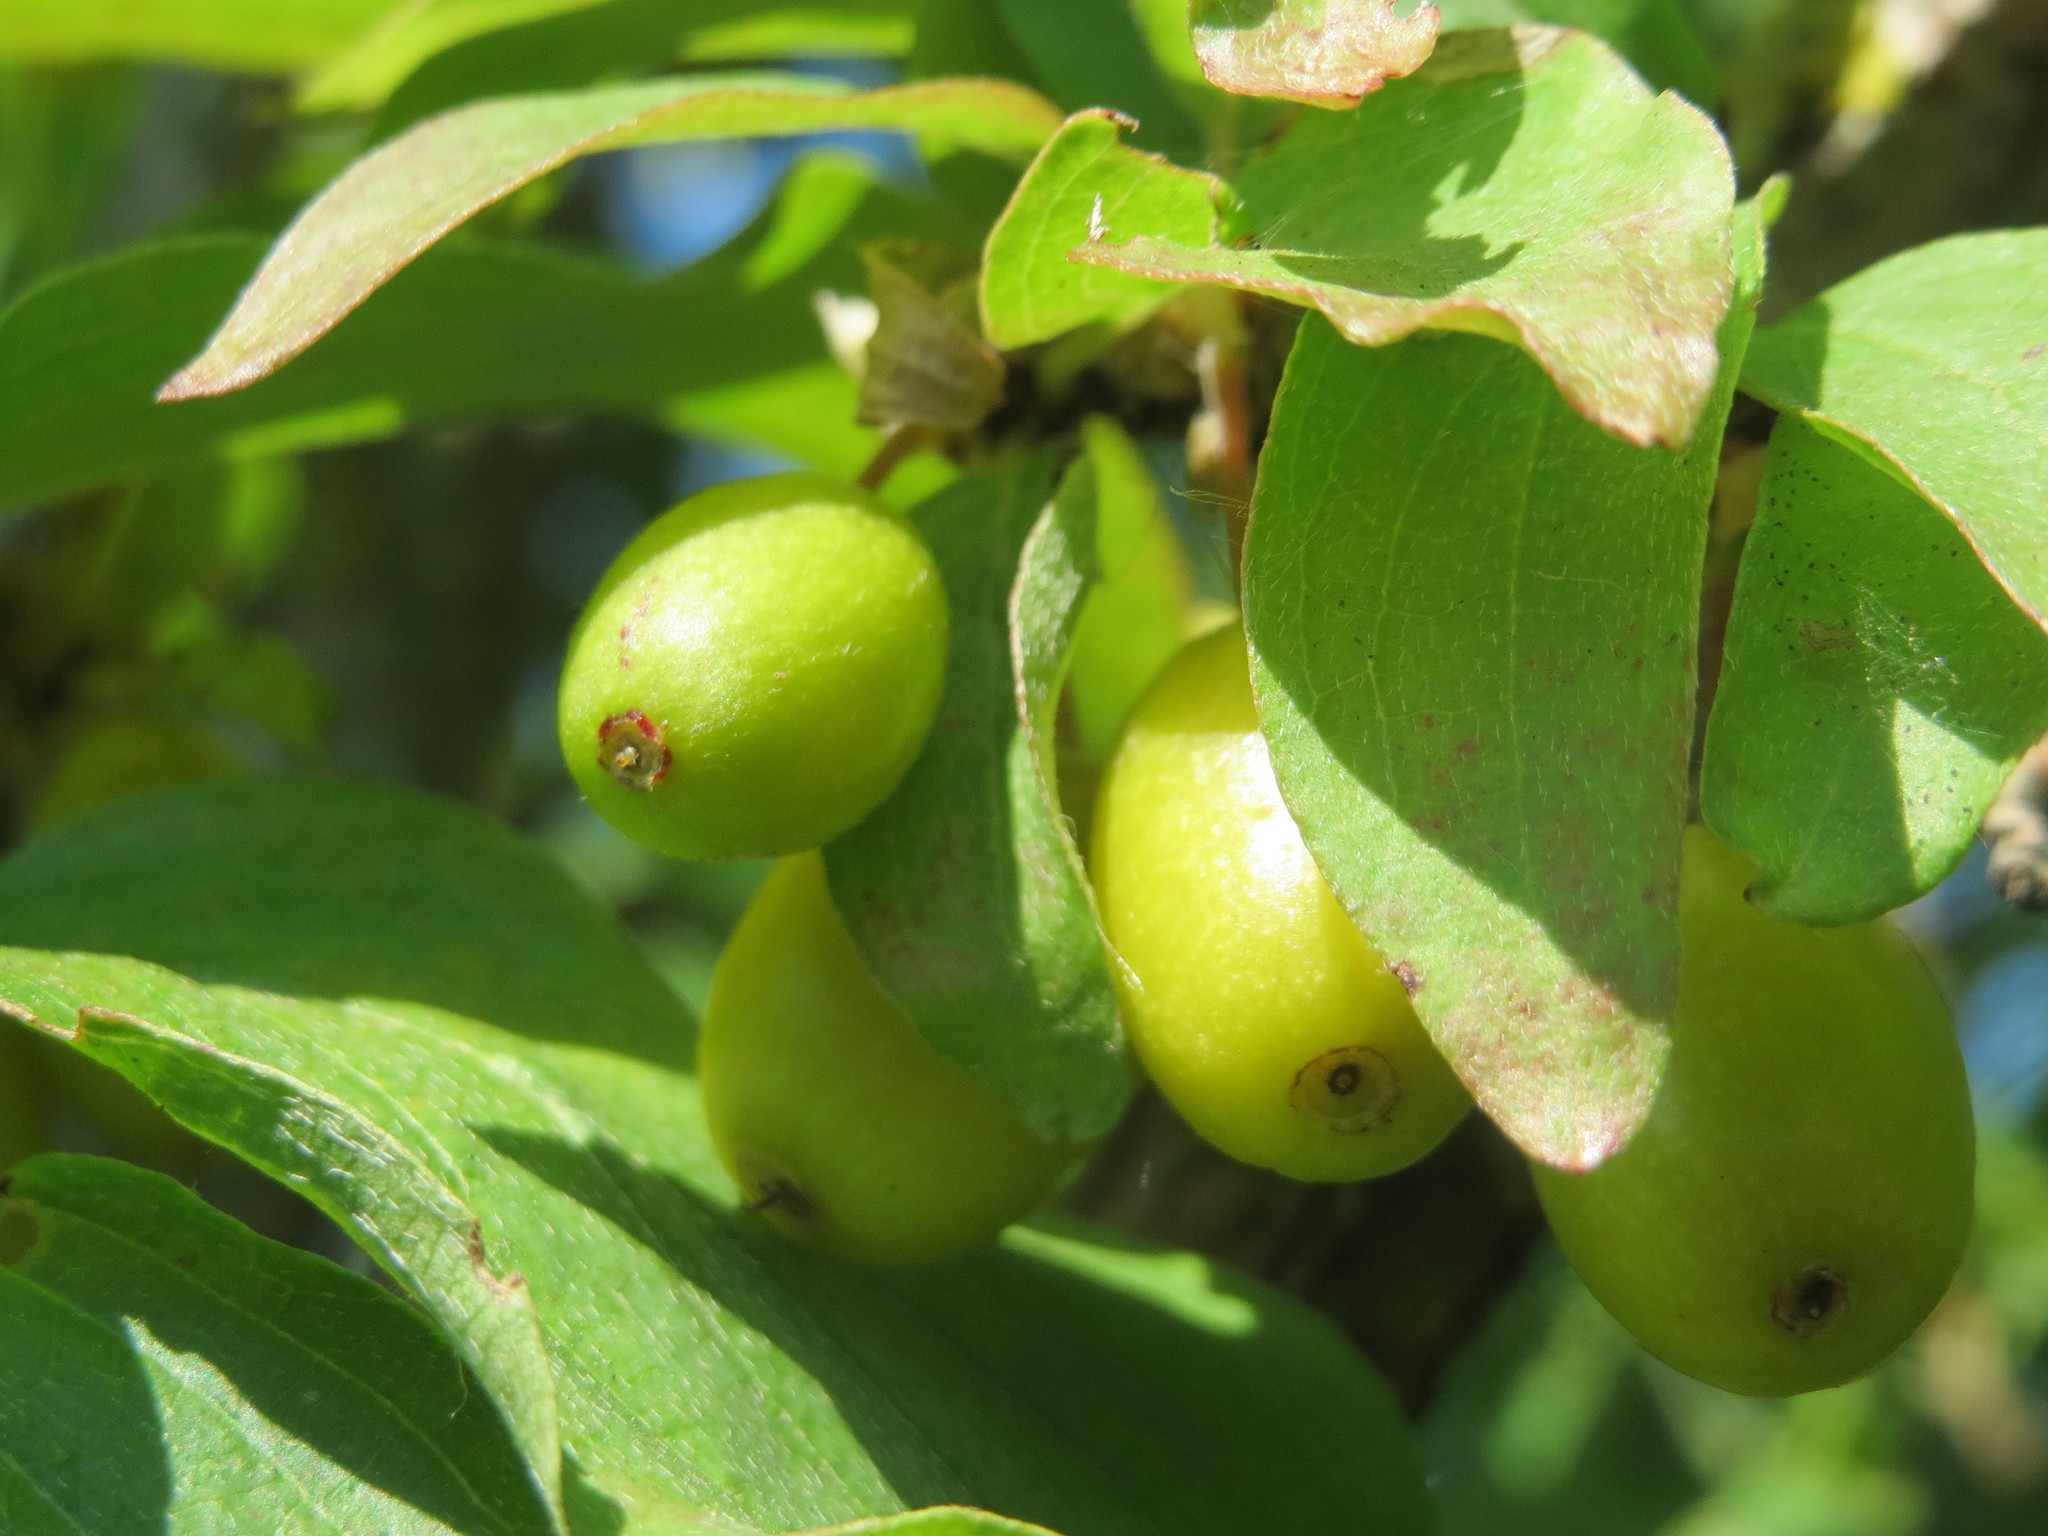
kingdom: Plantae
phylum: Tracheophyta
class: Magnoliopsida
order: Cornales
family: Cornaceae
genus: Cornus
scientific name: Cornus mas
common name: Cornelian-cherry
